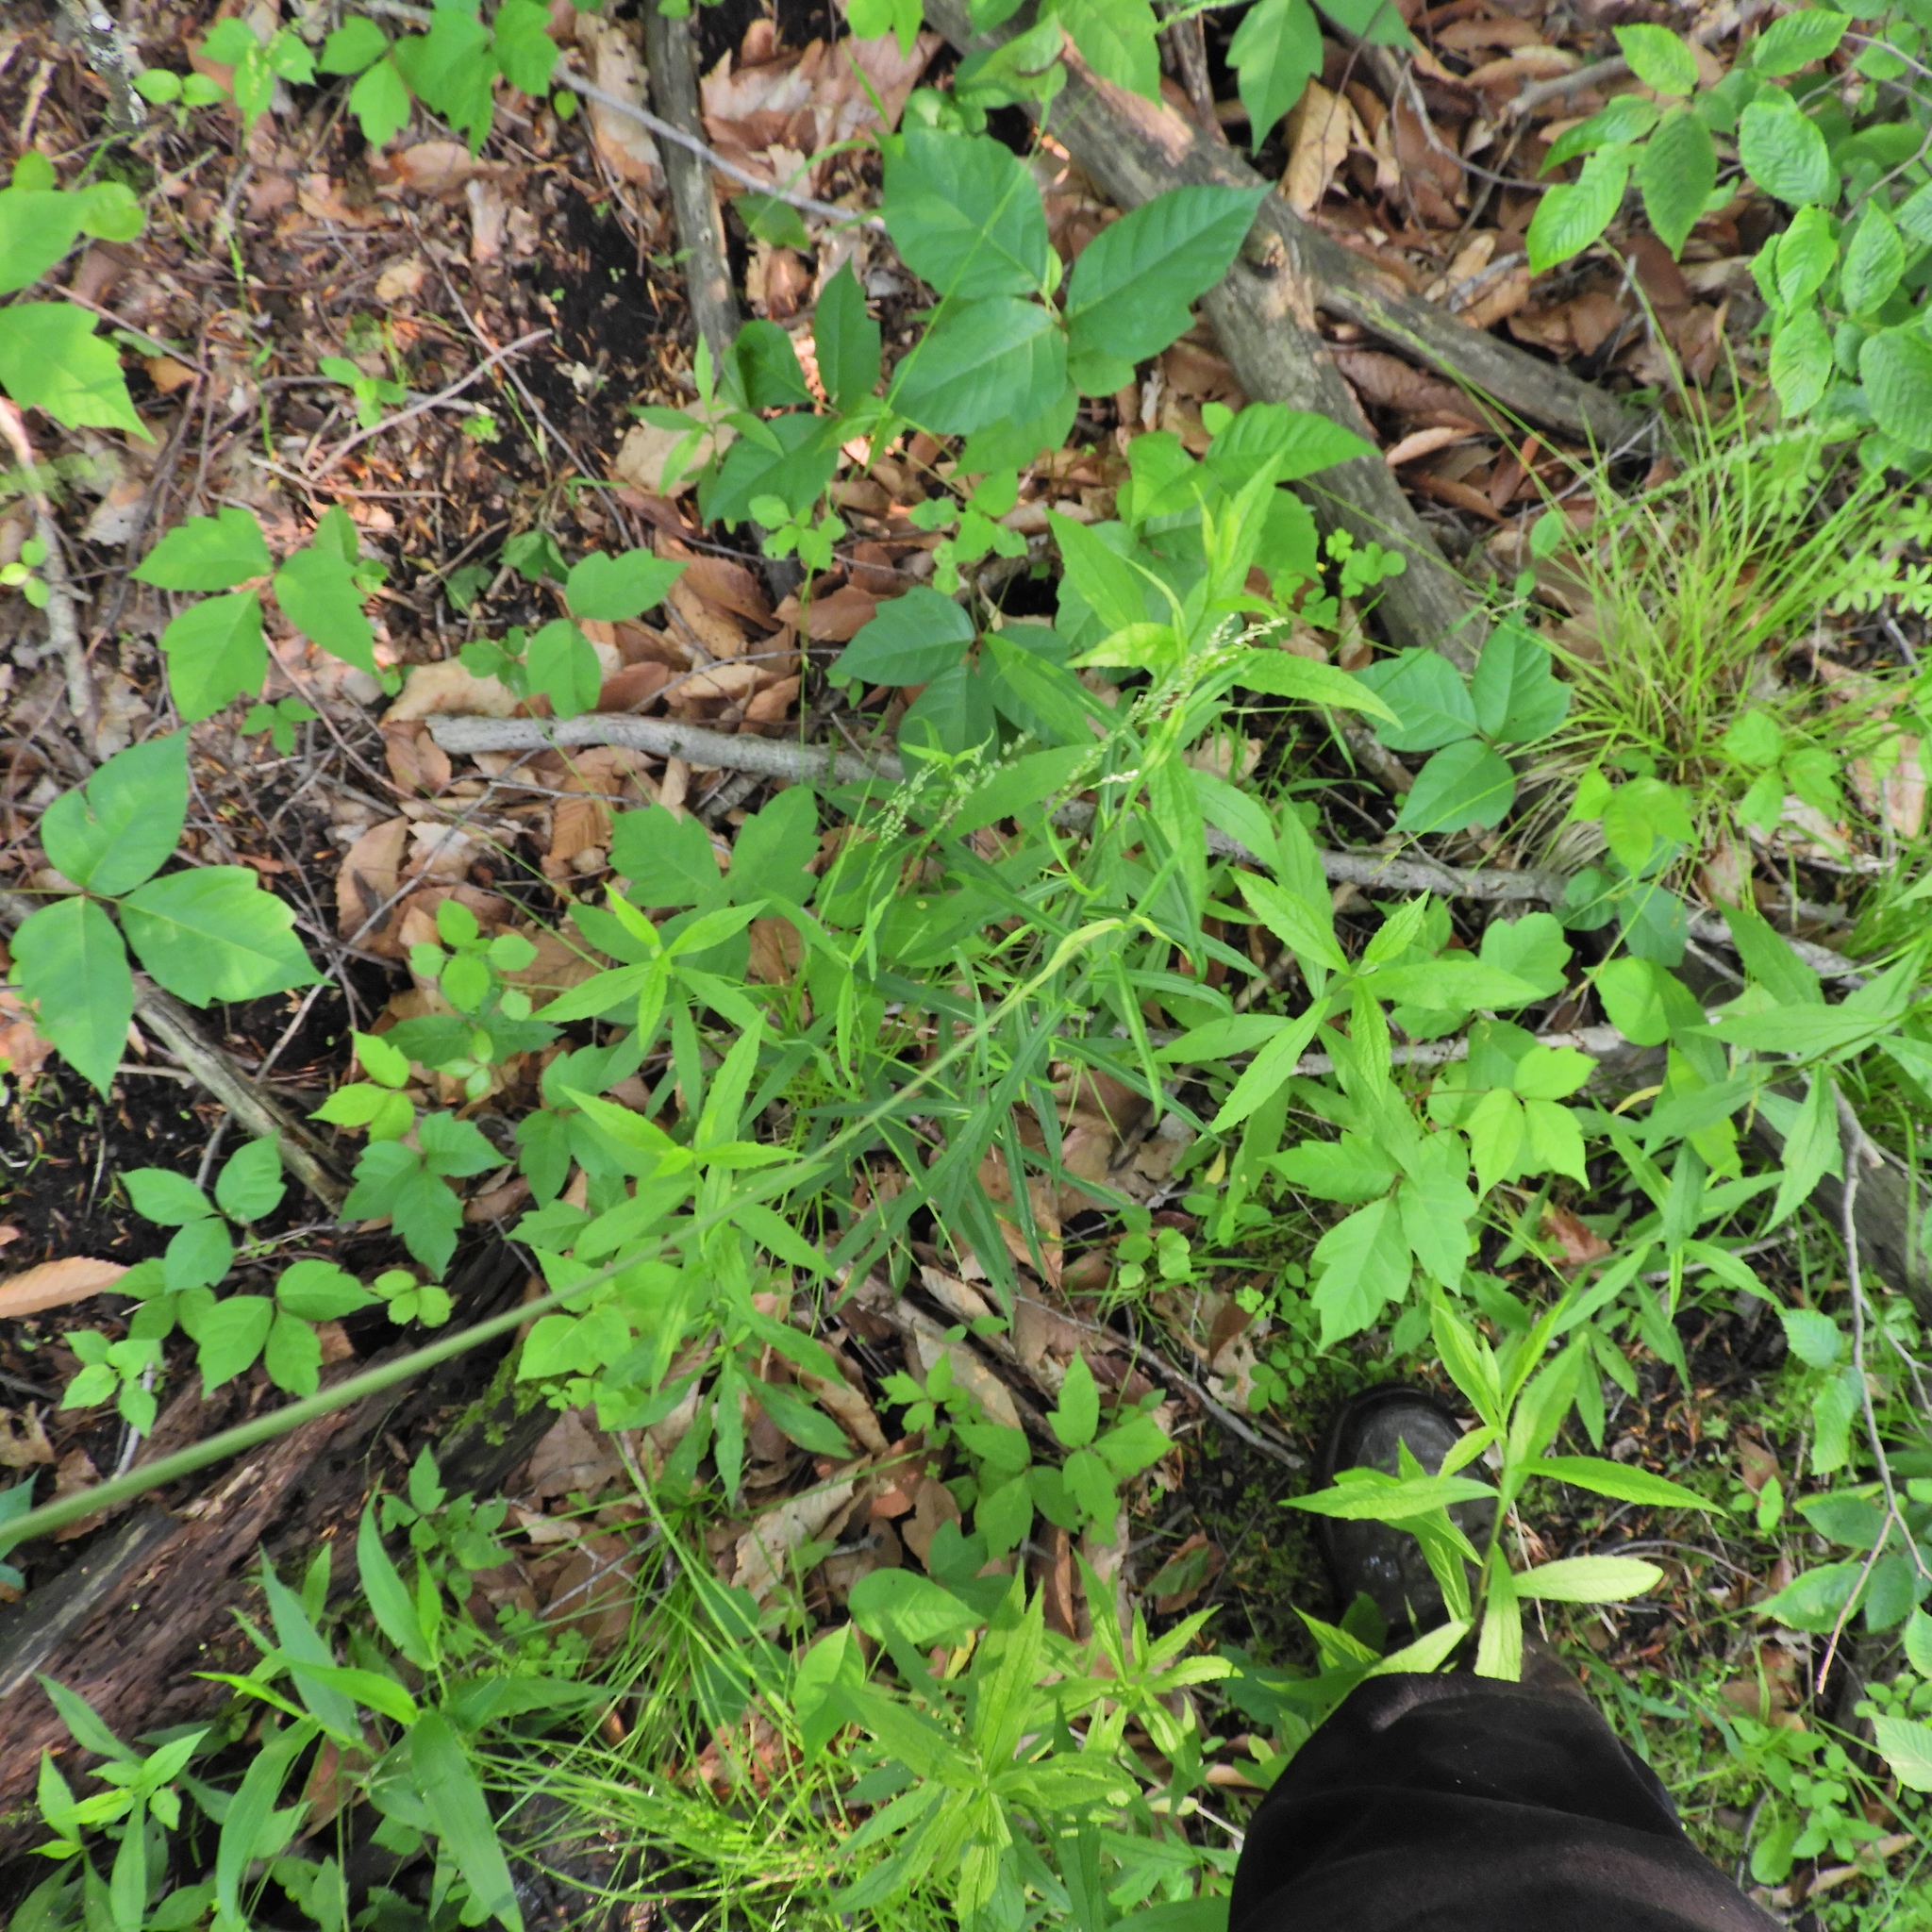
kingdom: Plantae
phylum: Tracheophyta
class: Magnoliopsida
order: Sapindales
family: Anacardiaceae
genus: Toxicodendron
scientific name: Toxicodendron radicans
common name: Poison ivy
